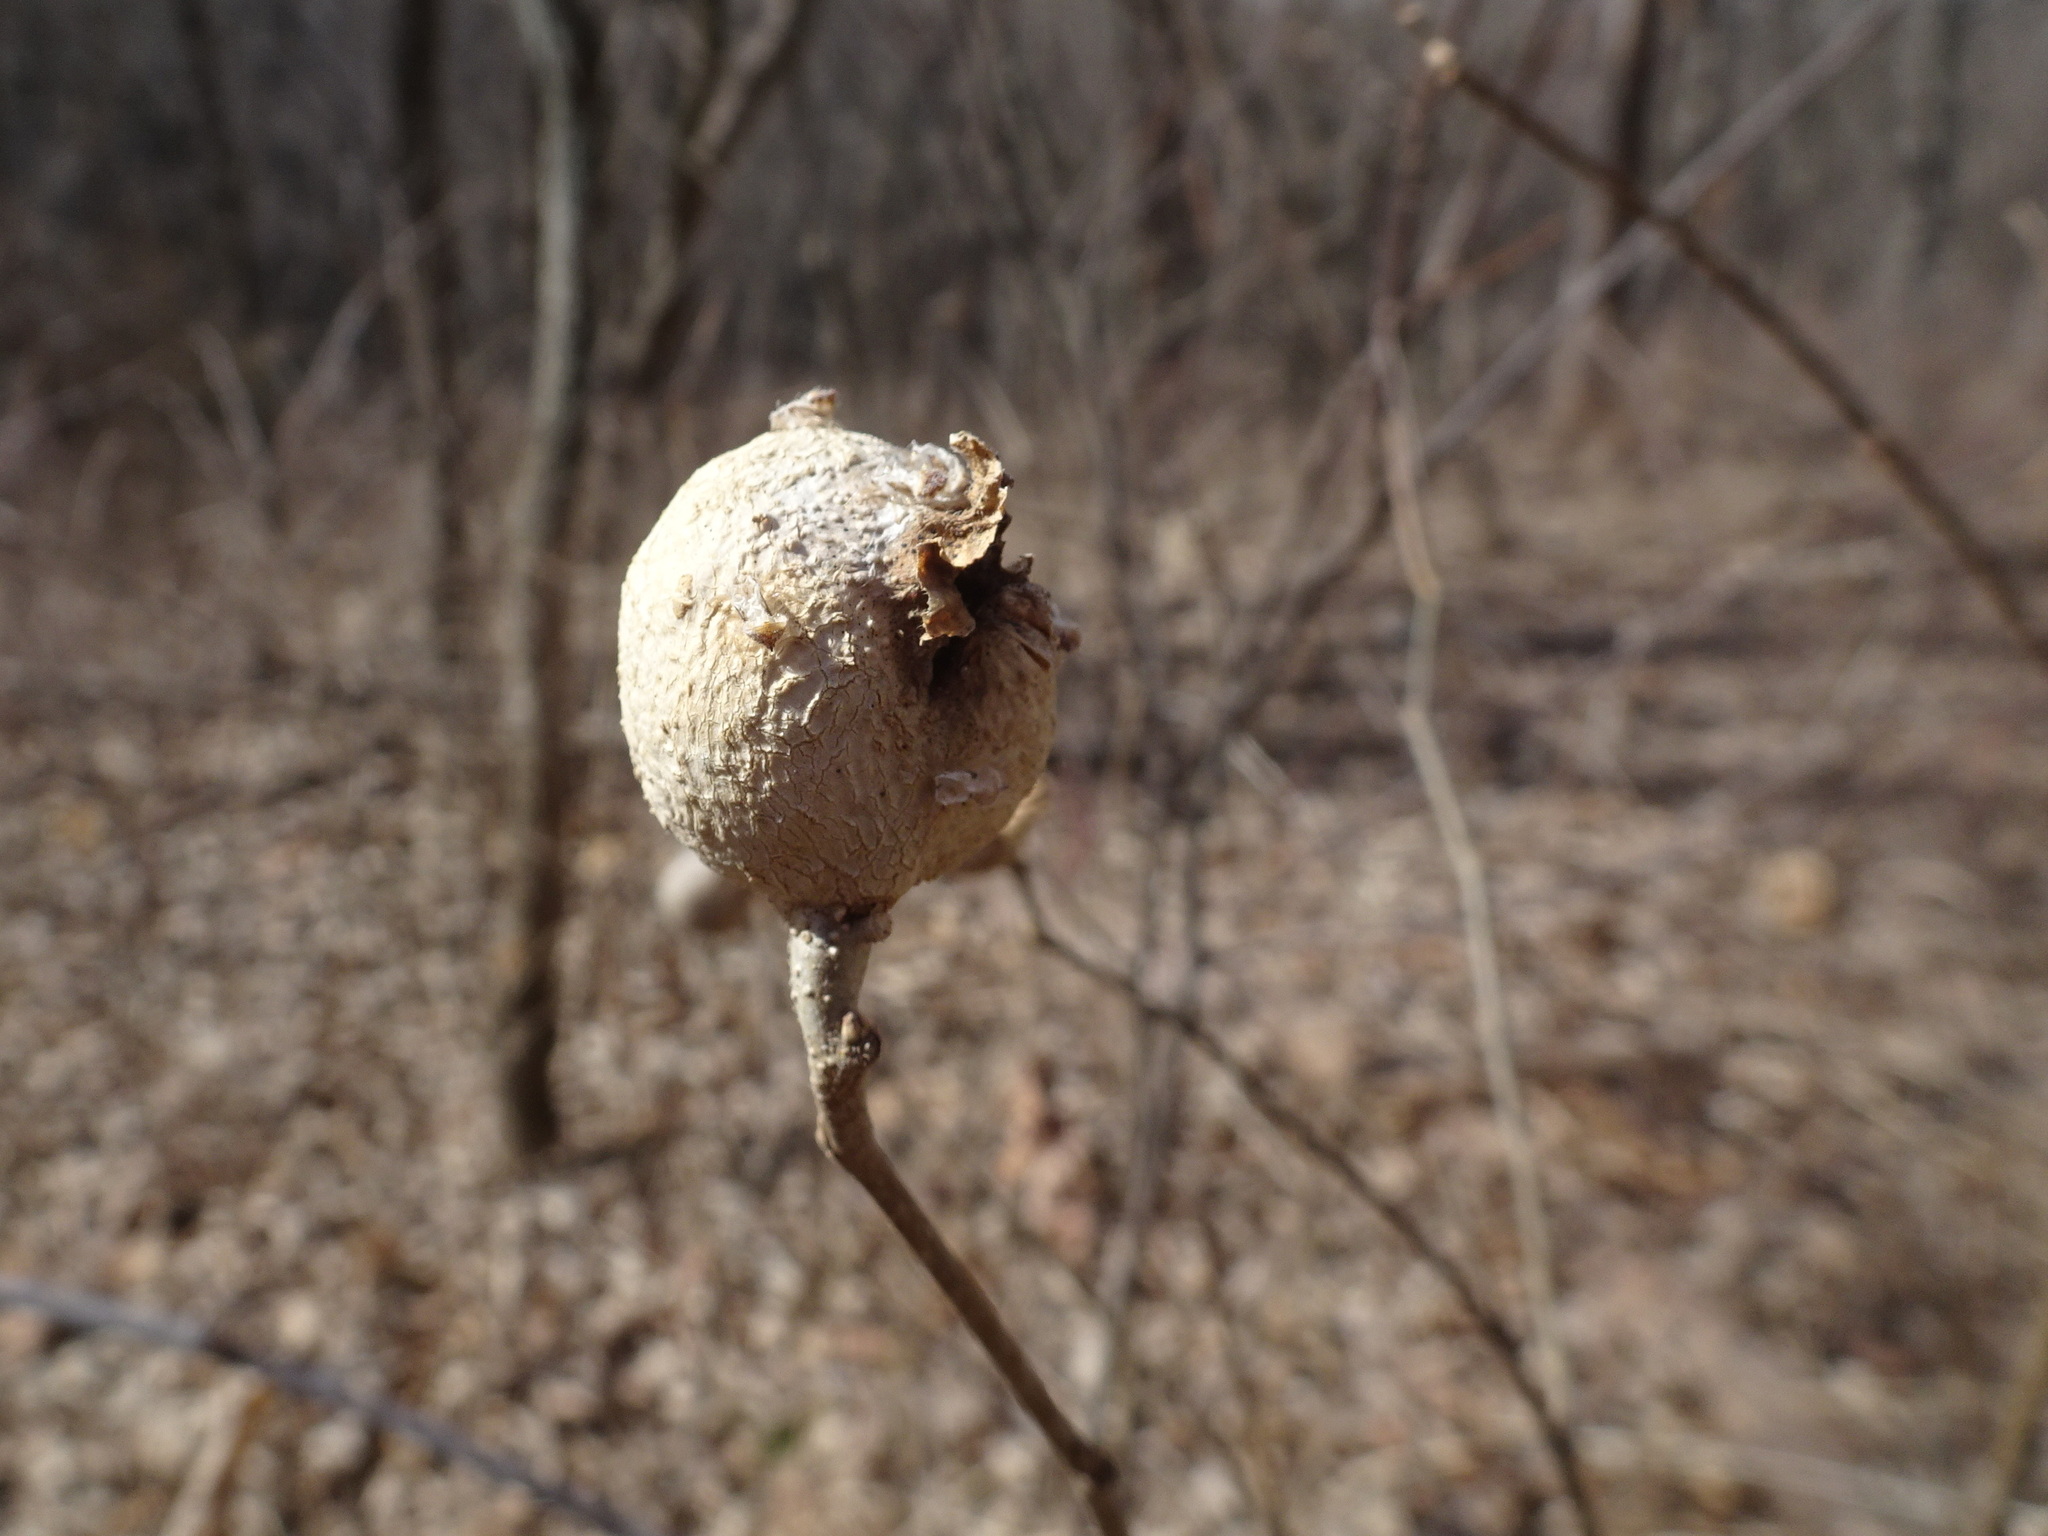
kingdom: Animalia
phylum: Arthropoda
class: Insecta
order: Hemiptera
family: Aphalaridae
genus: Pachypsylla
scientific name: Pachypsylla venusta
